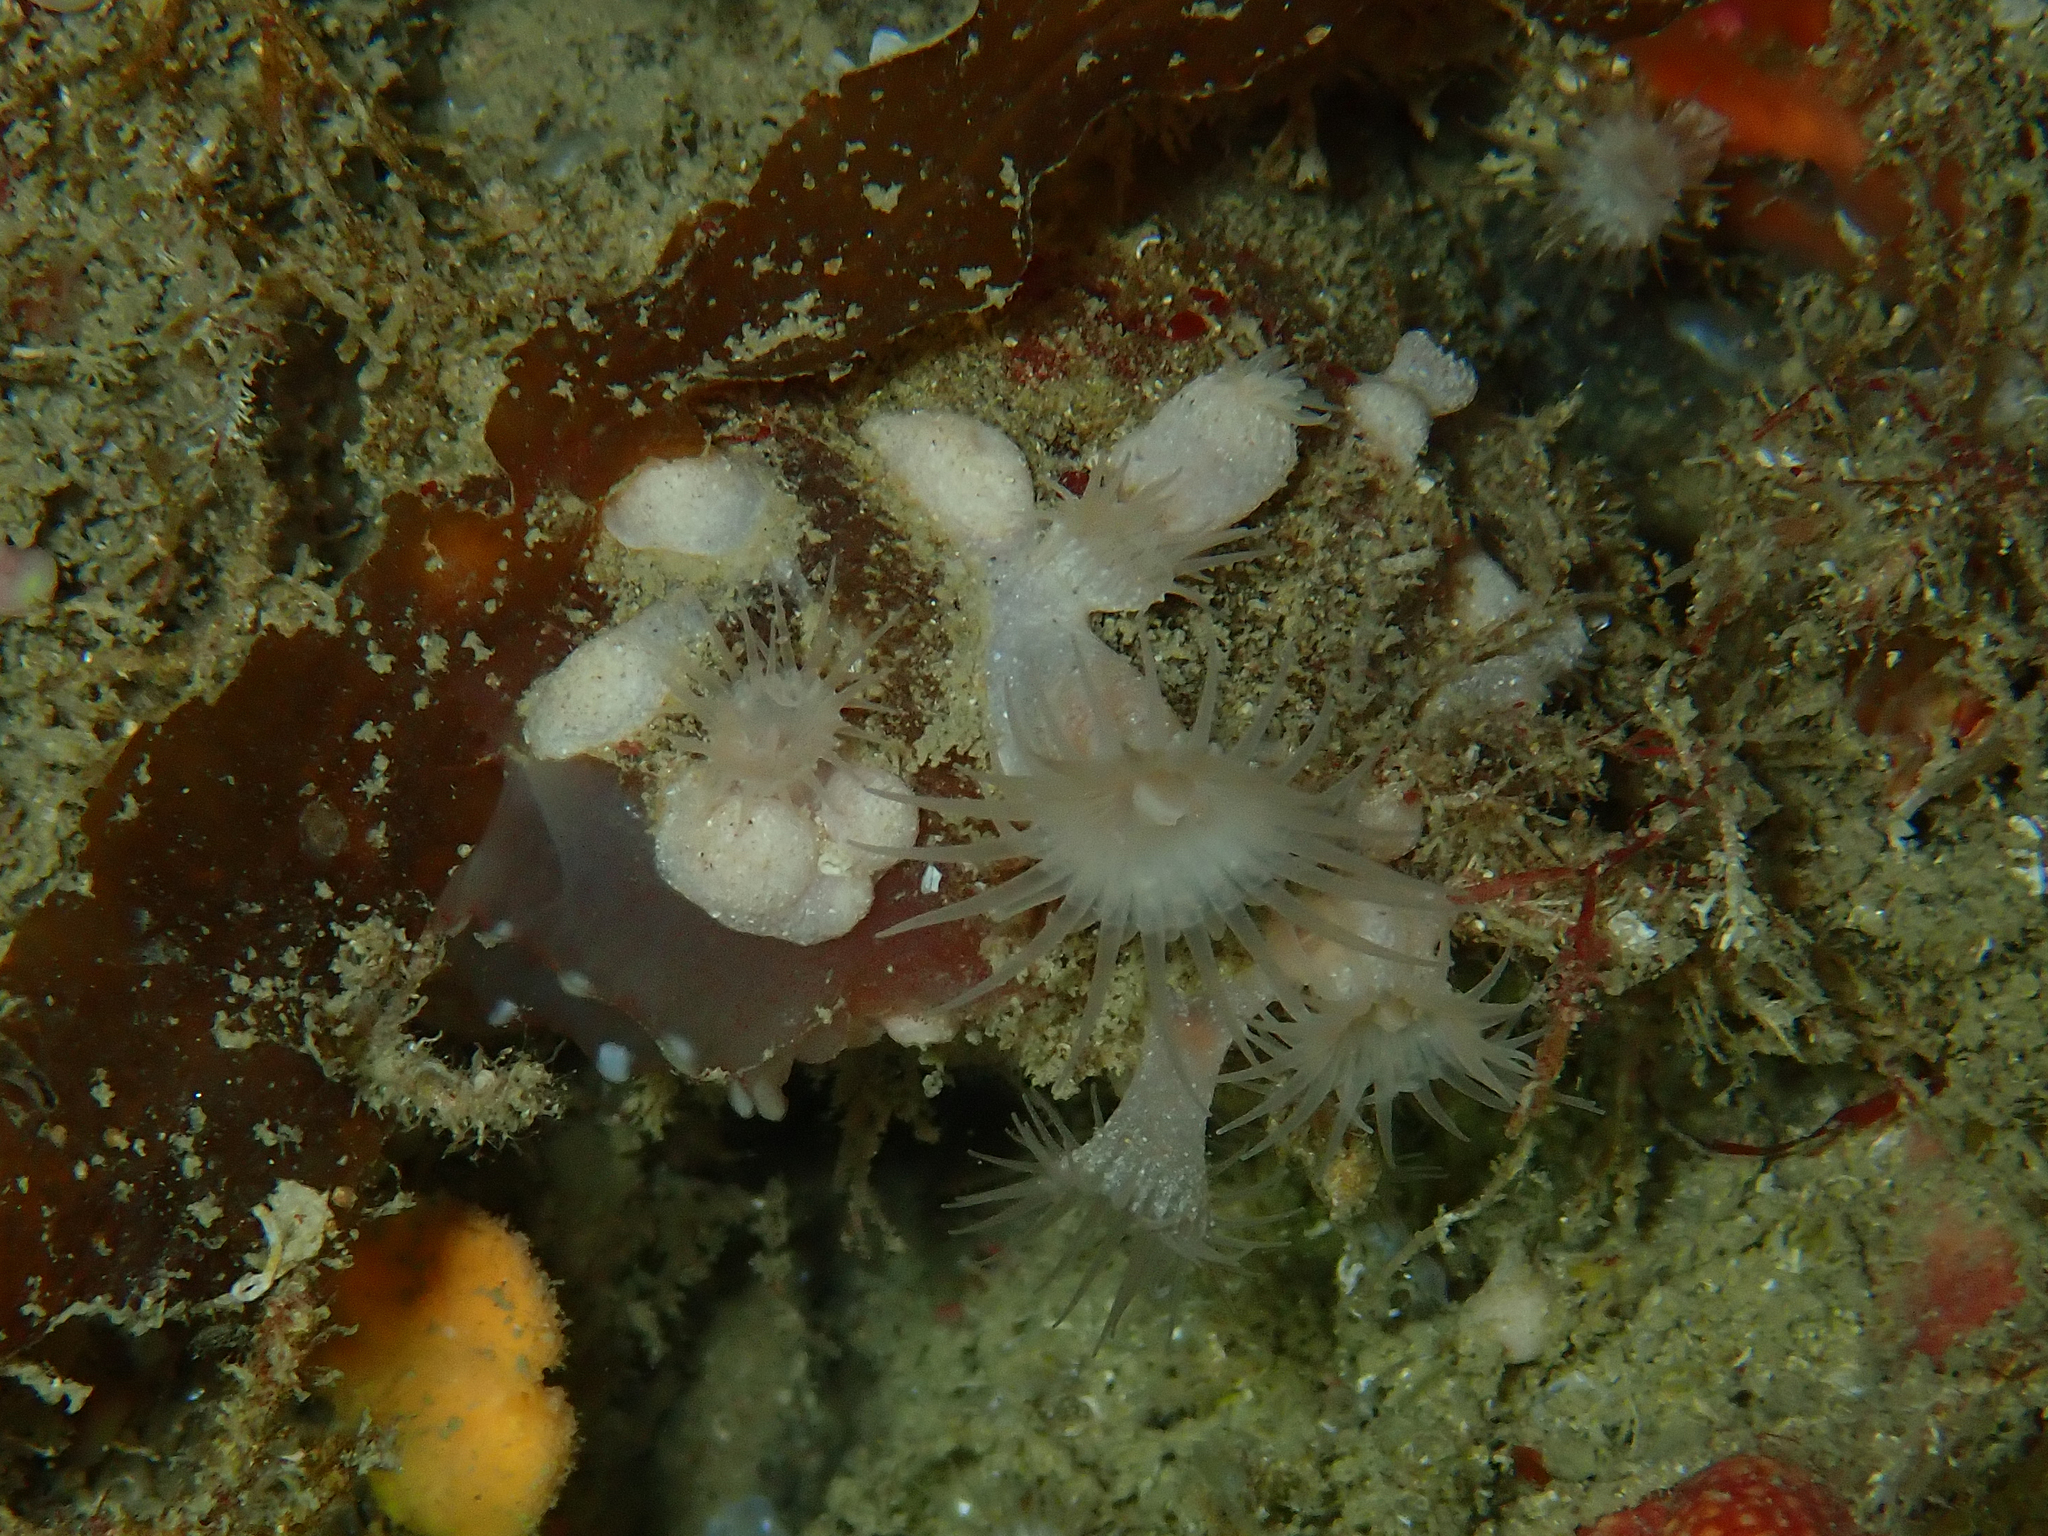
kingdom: Animalia
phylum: Cnidaria
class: Anthozoa
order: Zoantharia
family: Parazoanthidae
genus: Parazoanthus
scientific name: Parazoanthus anguicomus
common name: White cluster anemone
